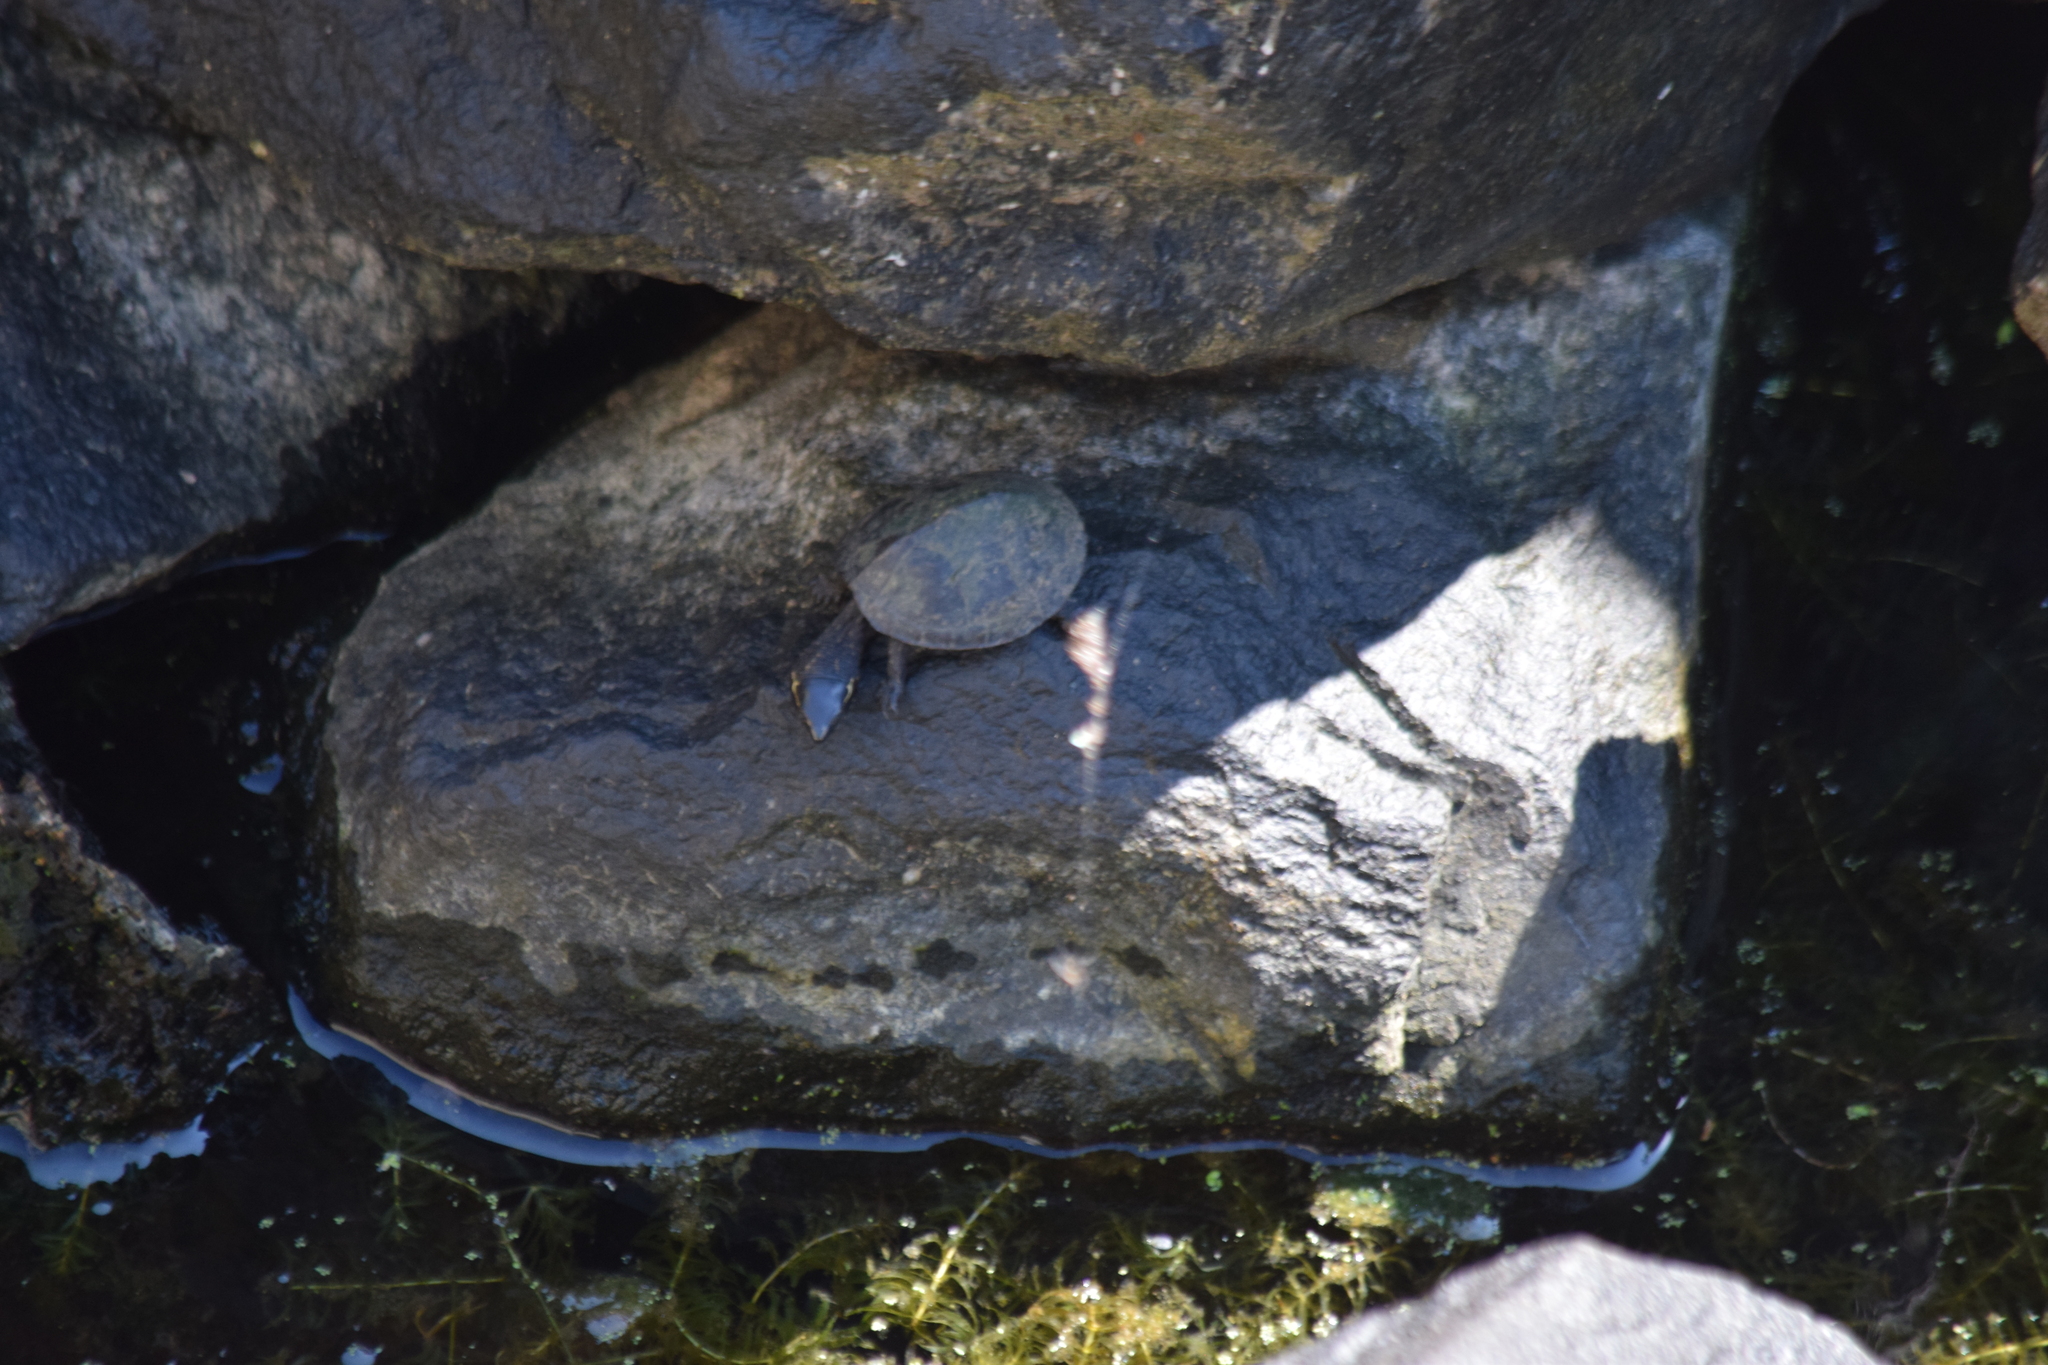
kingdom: Animalia
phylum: Chordata
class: Testudines
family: Kinosternidae
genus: Sternotherus
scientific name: Sternotherus odoratus
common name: Common musk turtle
